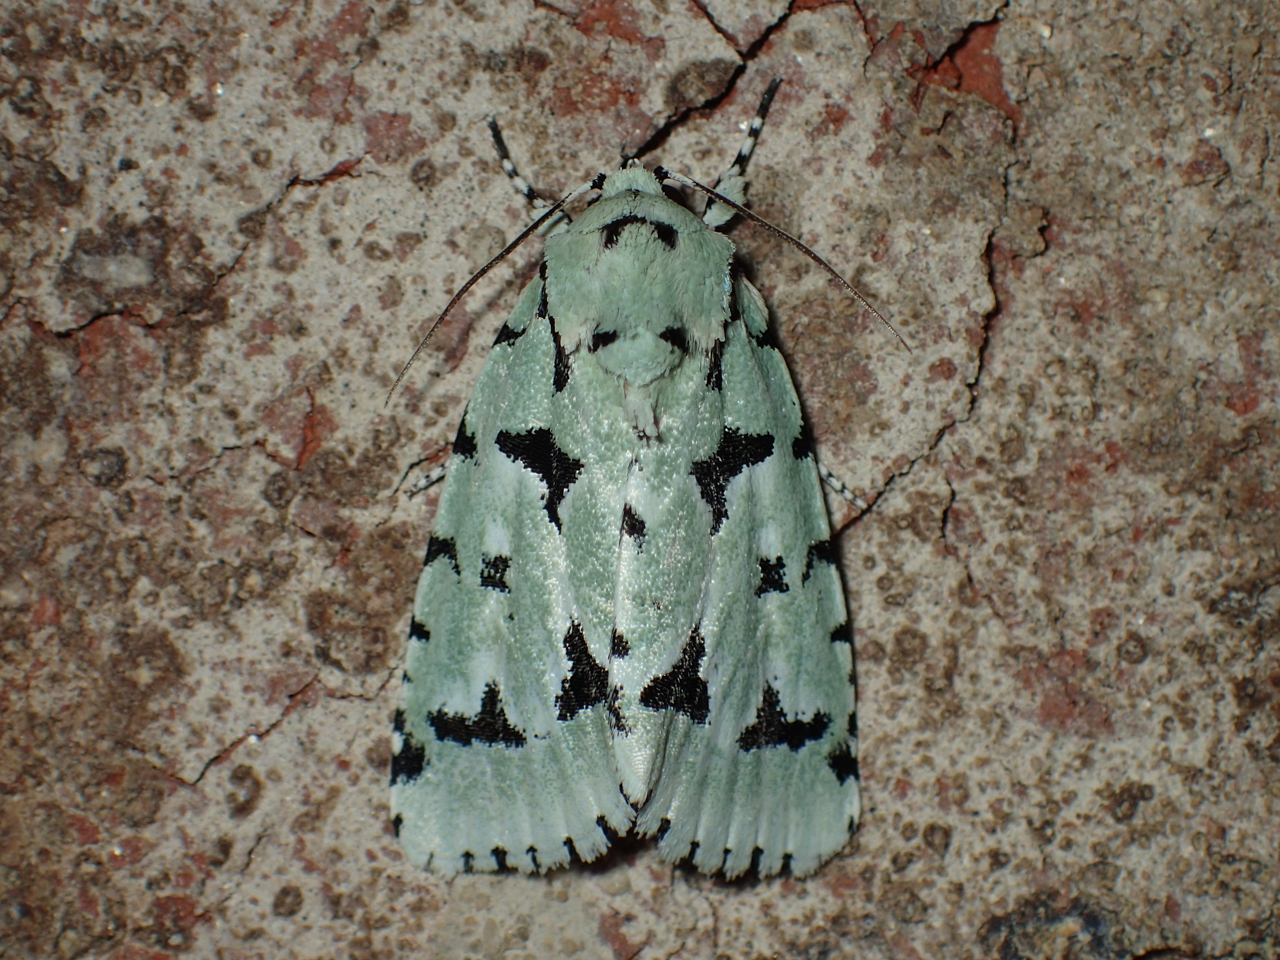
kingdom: Animalia
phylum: Arthropoda
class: Insecta
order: Lepidoptera
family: Noctuidae
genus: Acronicta
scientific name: Acronicta fallax
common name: Green marvel
